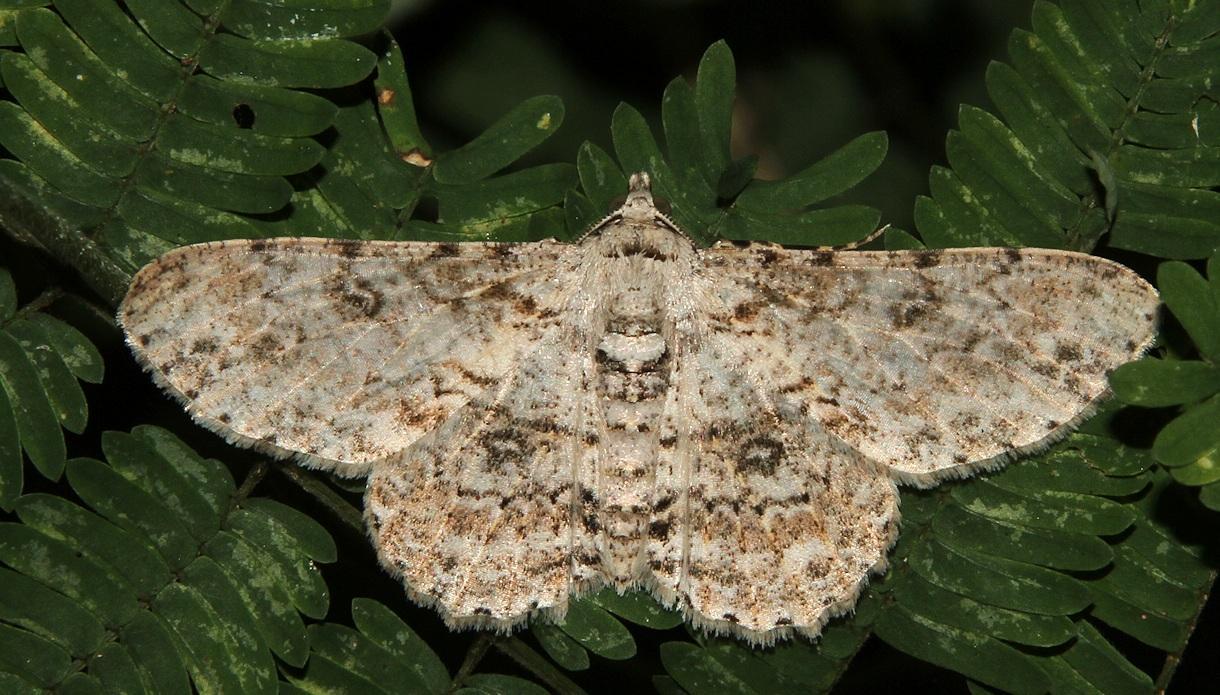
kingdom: Animalia
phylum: Arthropoda
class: Insecta
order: Lepidoptera
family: Geometridae
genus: Ascotis
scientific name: Ascotis reciprocaria
